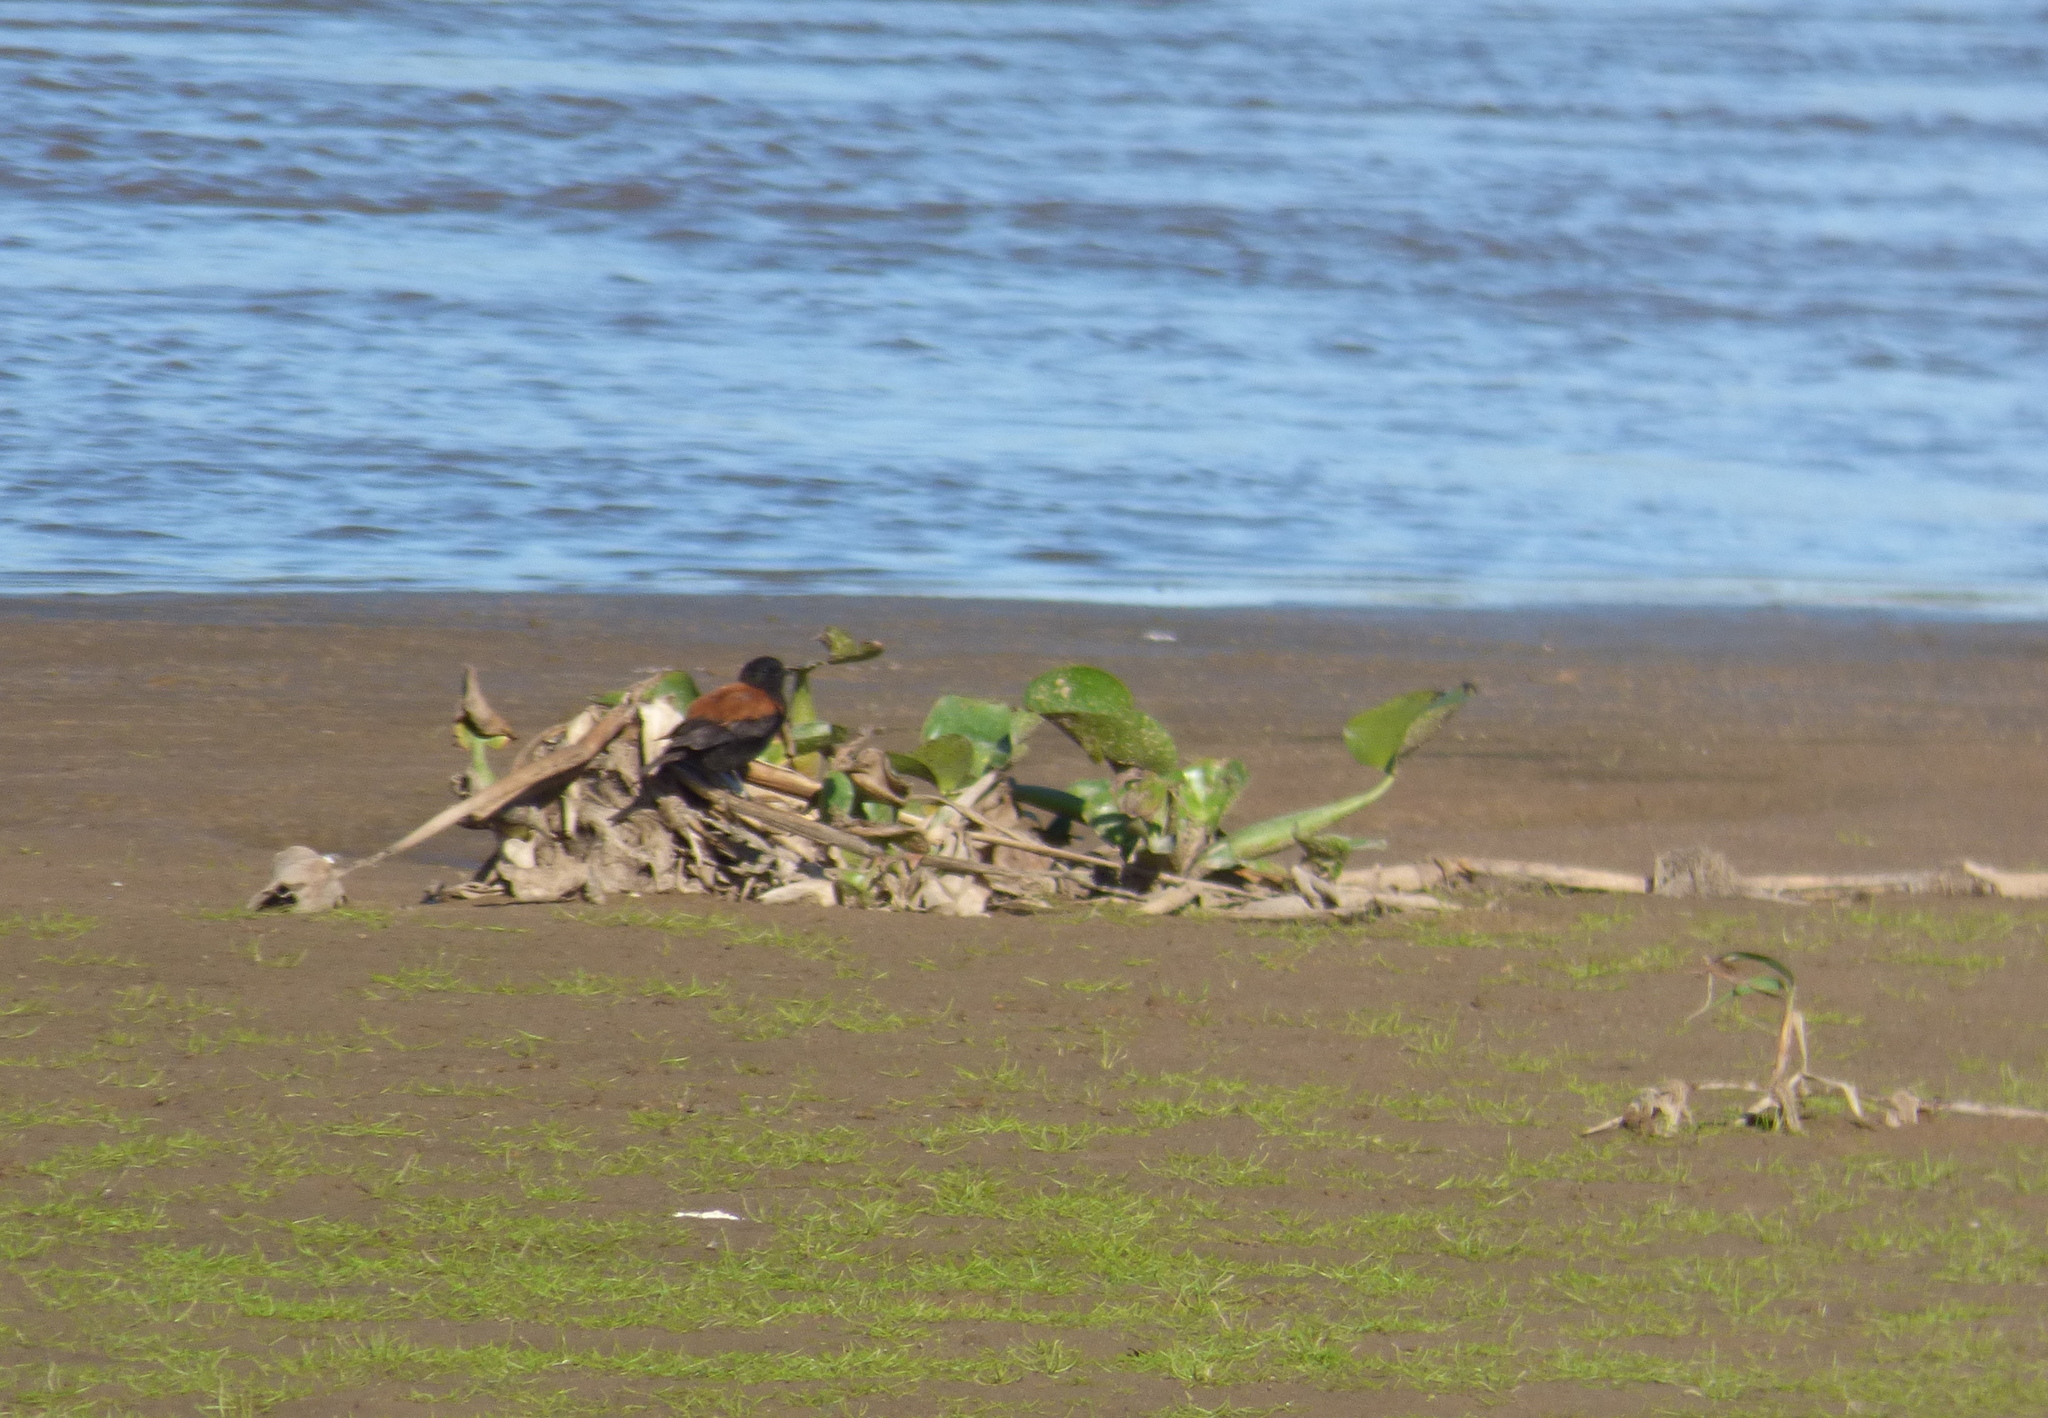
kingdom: Animalia
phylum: Chordata
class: Aves
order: Passeriformes
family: Tyrannidae
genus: Lessonia
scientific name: Lessonia rufa
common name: Austral negrito
